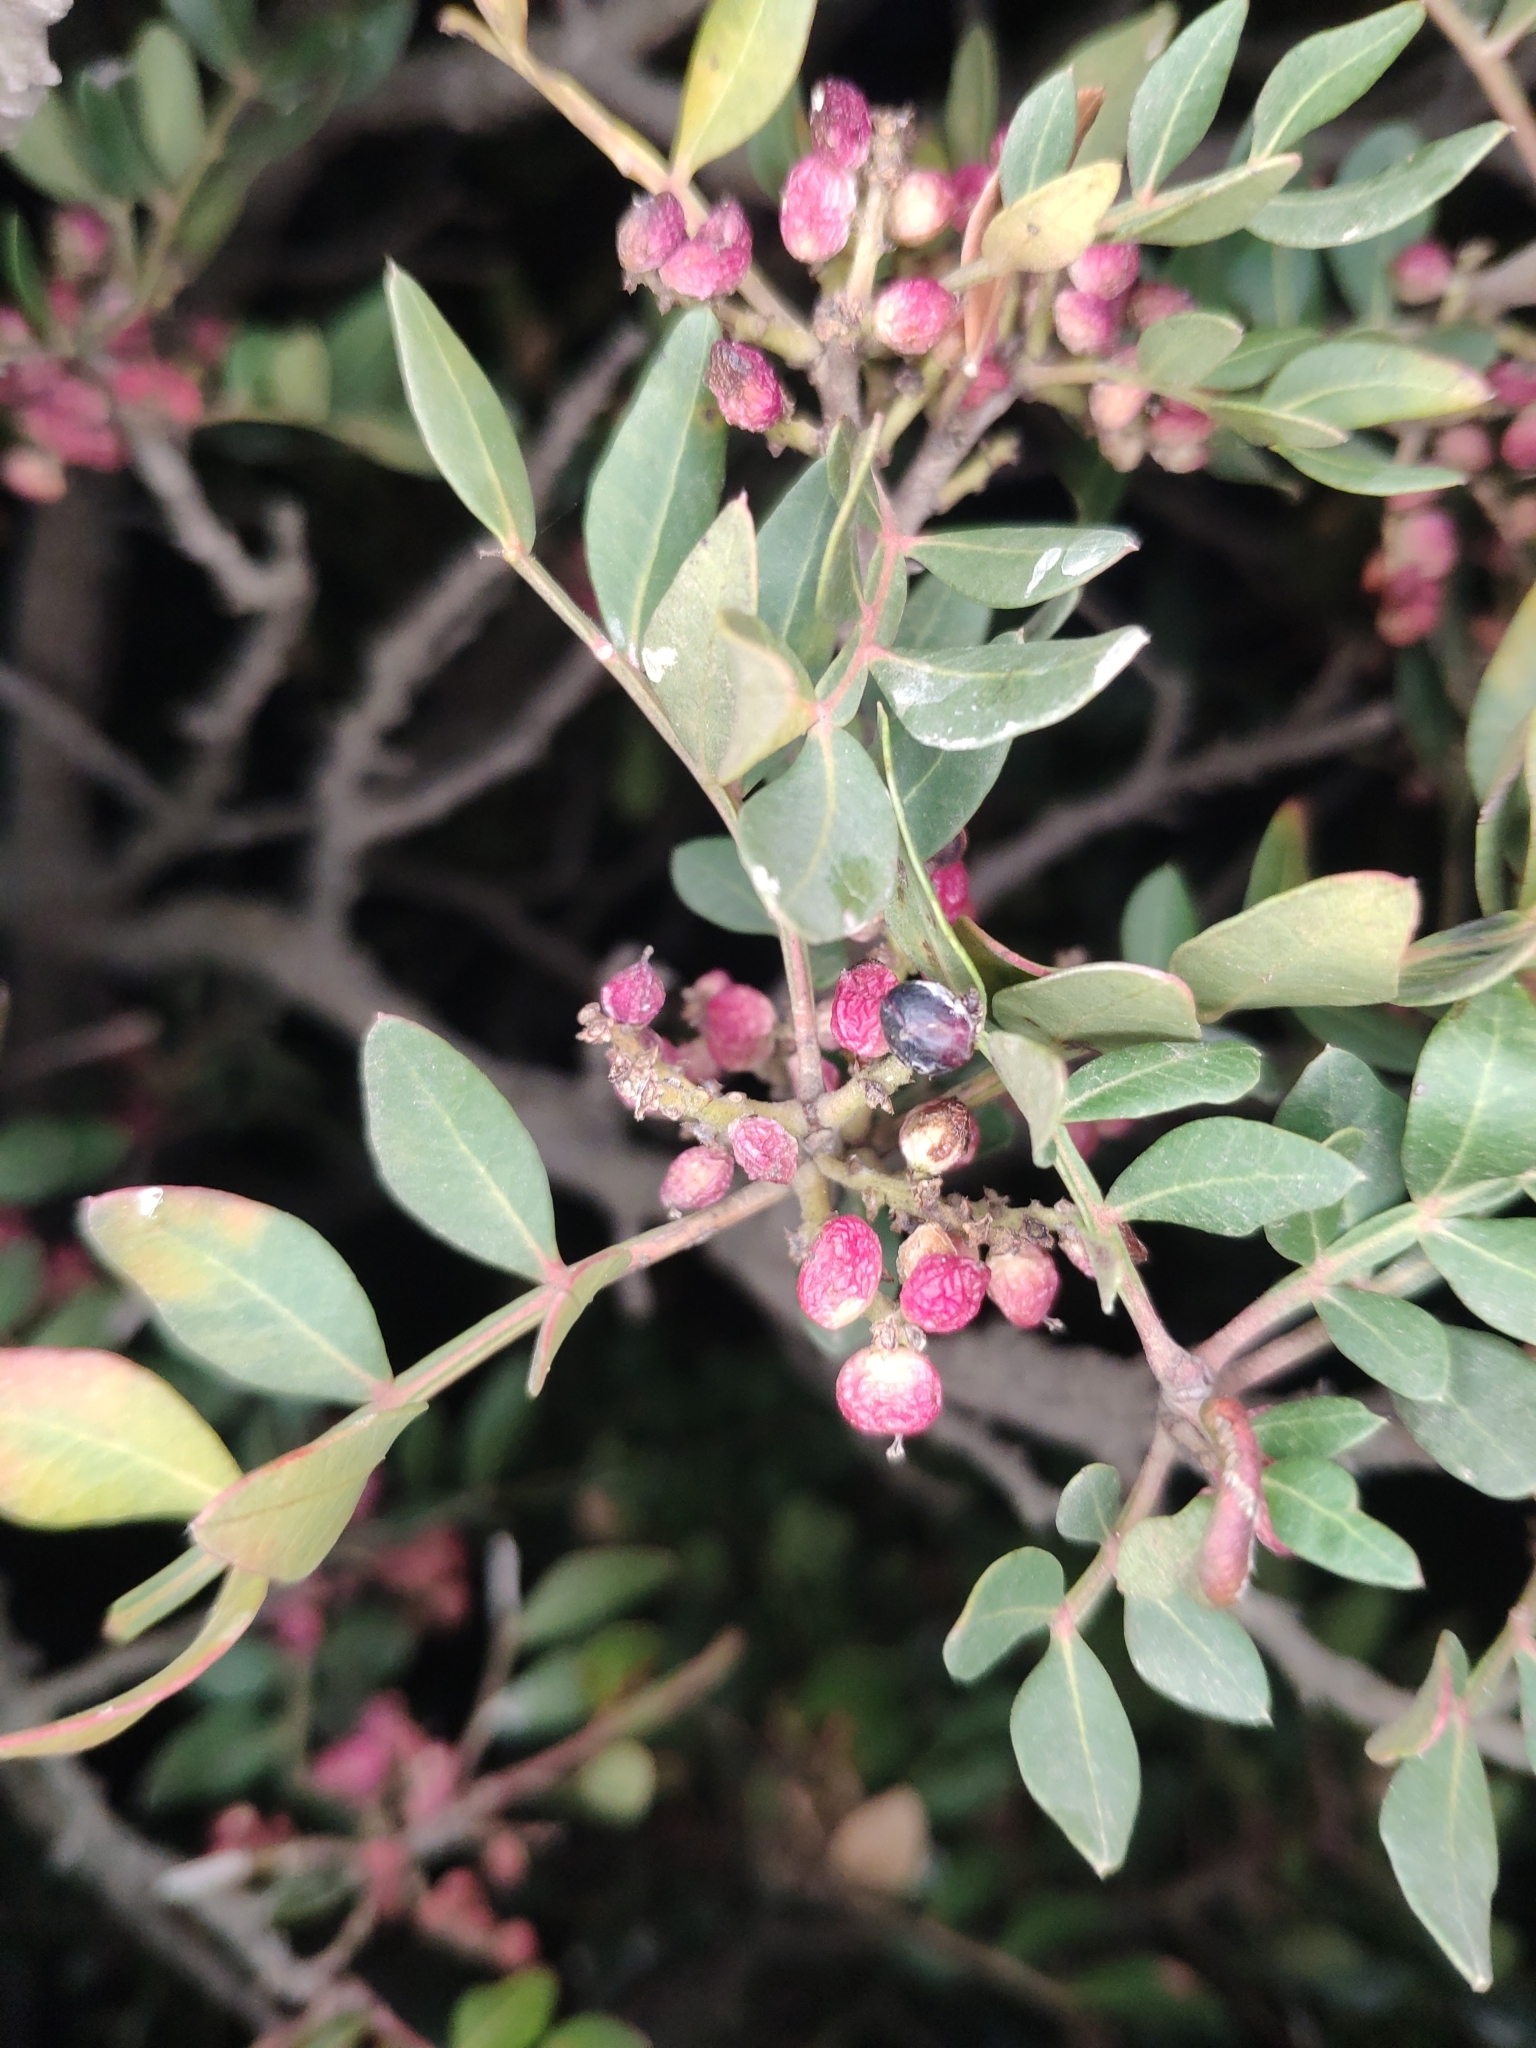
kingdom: Plantae
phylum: Tracheophyta
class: Magnoliopsida
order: Sapindales
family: Anacardiaceae
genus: Pistacia
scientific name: Pistacia lentiscus
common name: Lentisk
